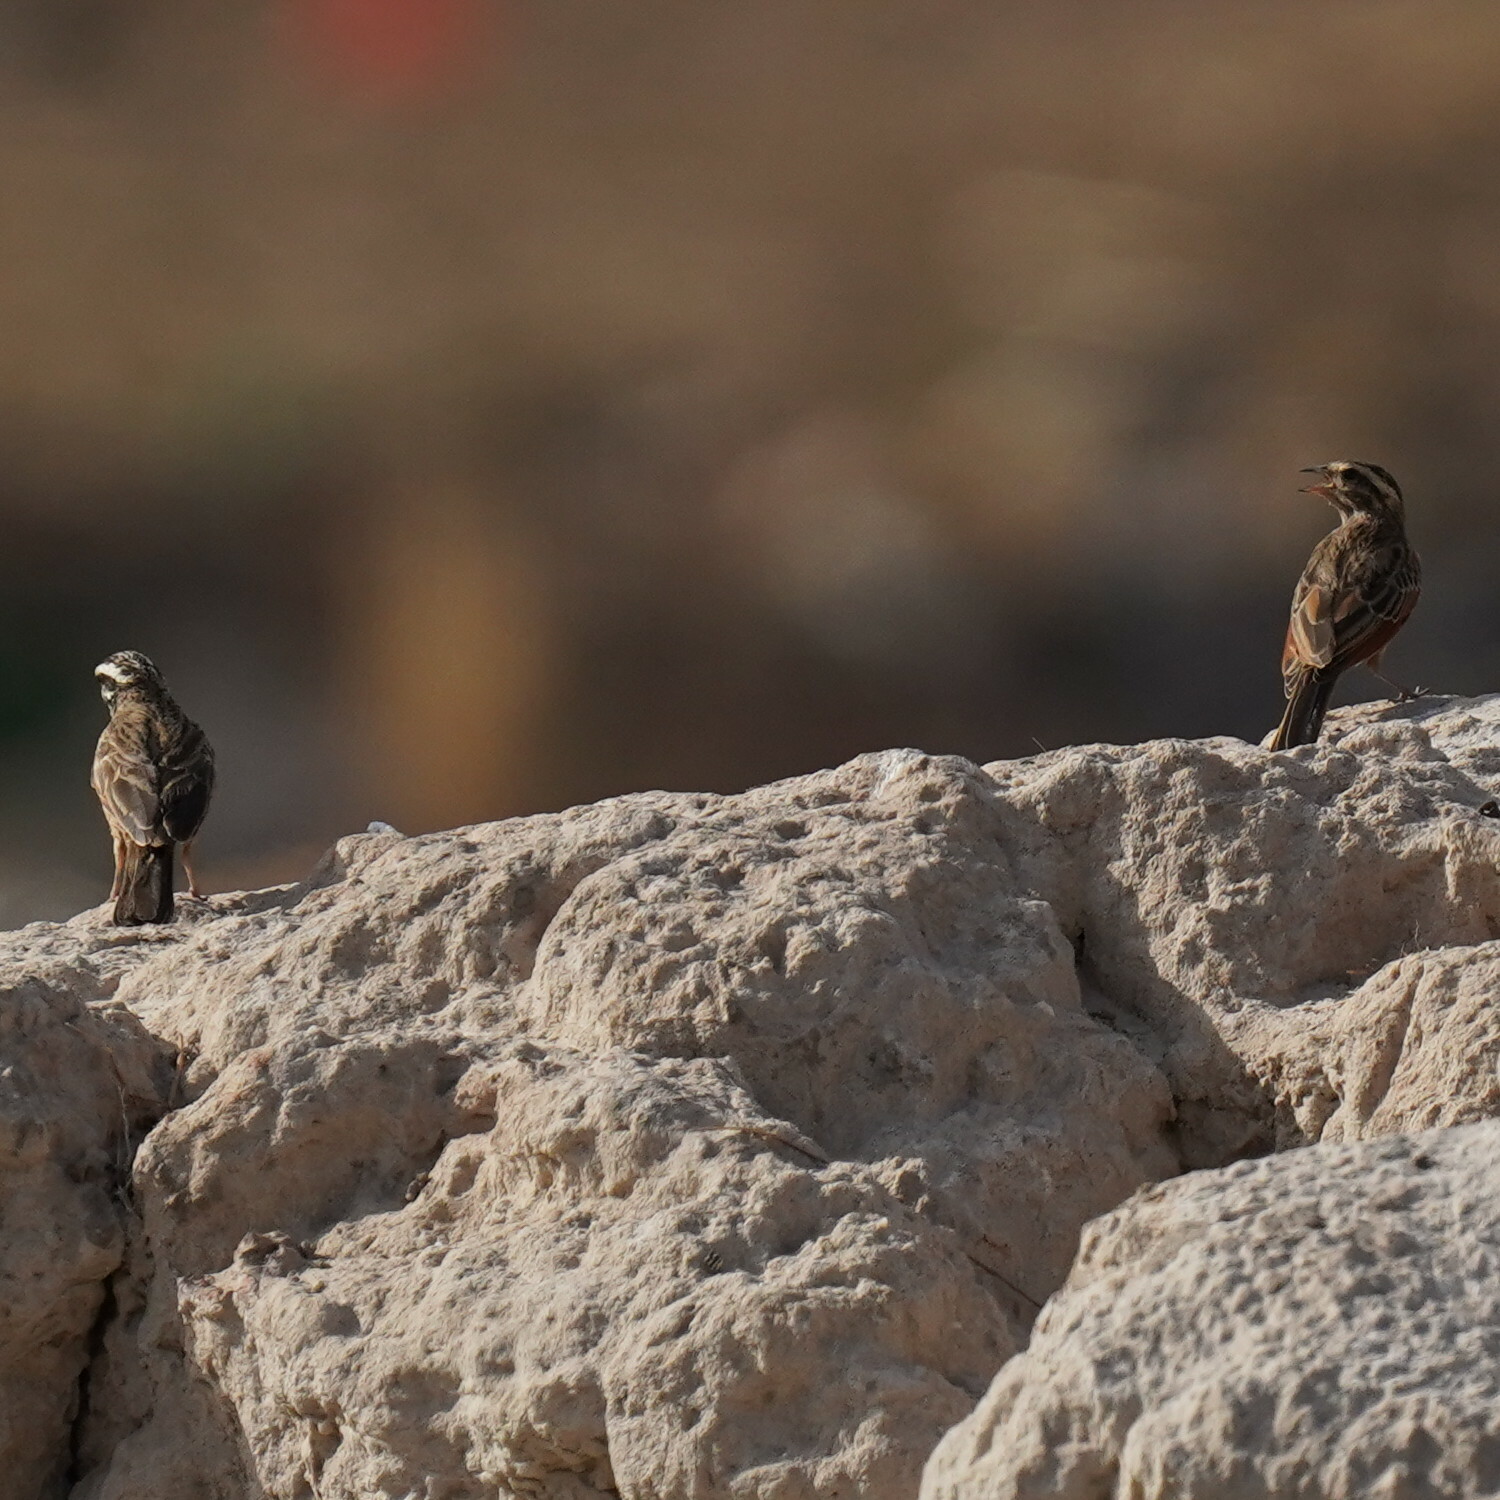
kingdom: Animalia
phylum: Chordata
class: Aves
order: Passeriformes
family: Emberizidae
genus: Emberiza
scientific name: Emberiza goslingi
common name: Gosling's bunting
